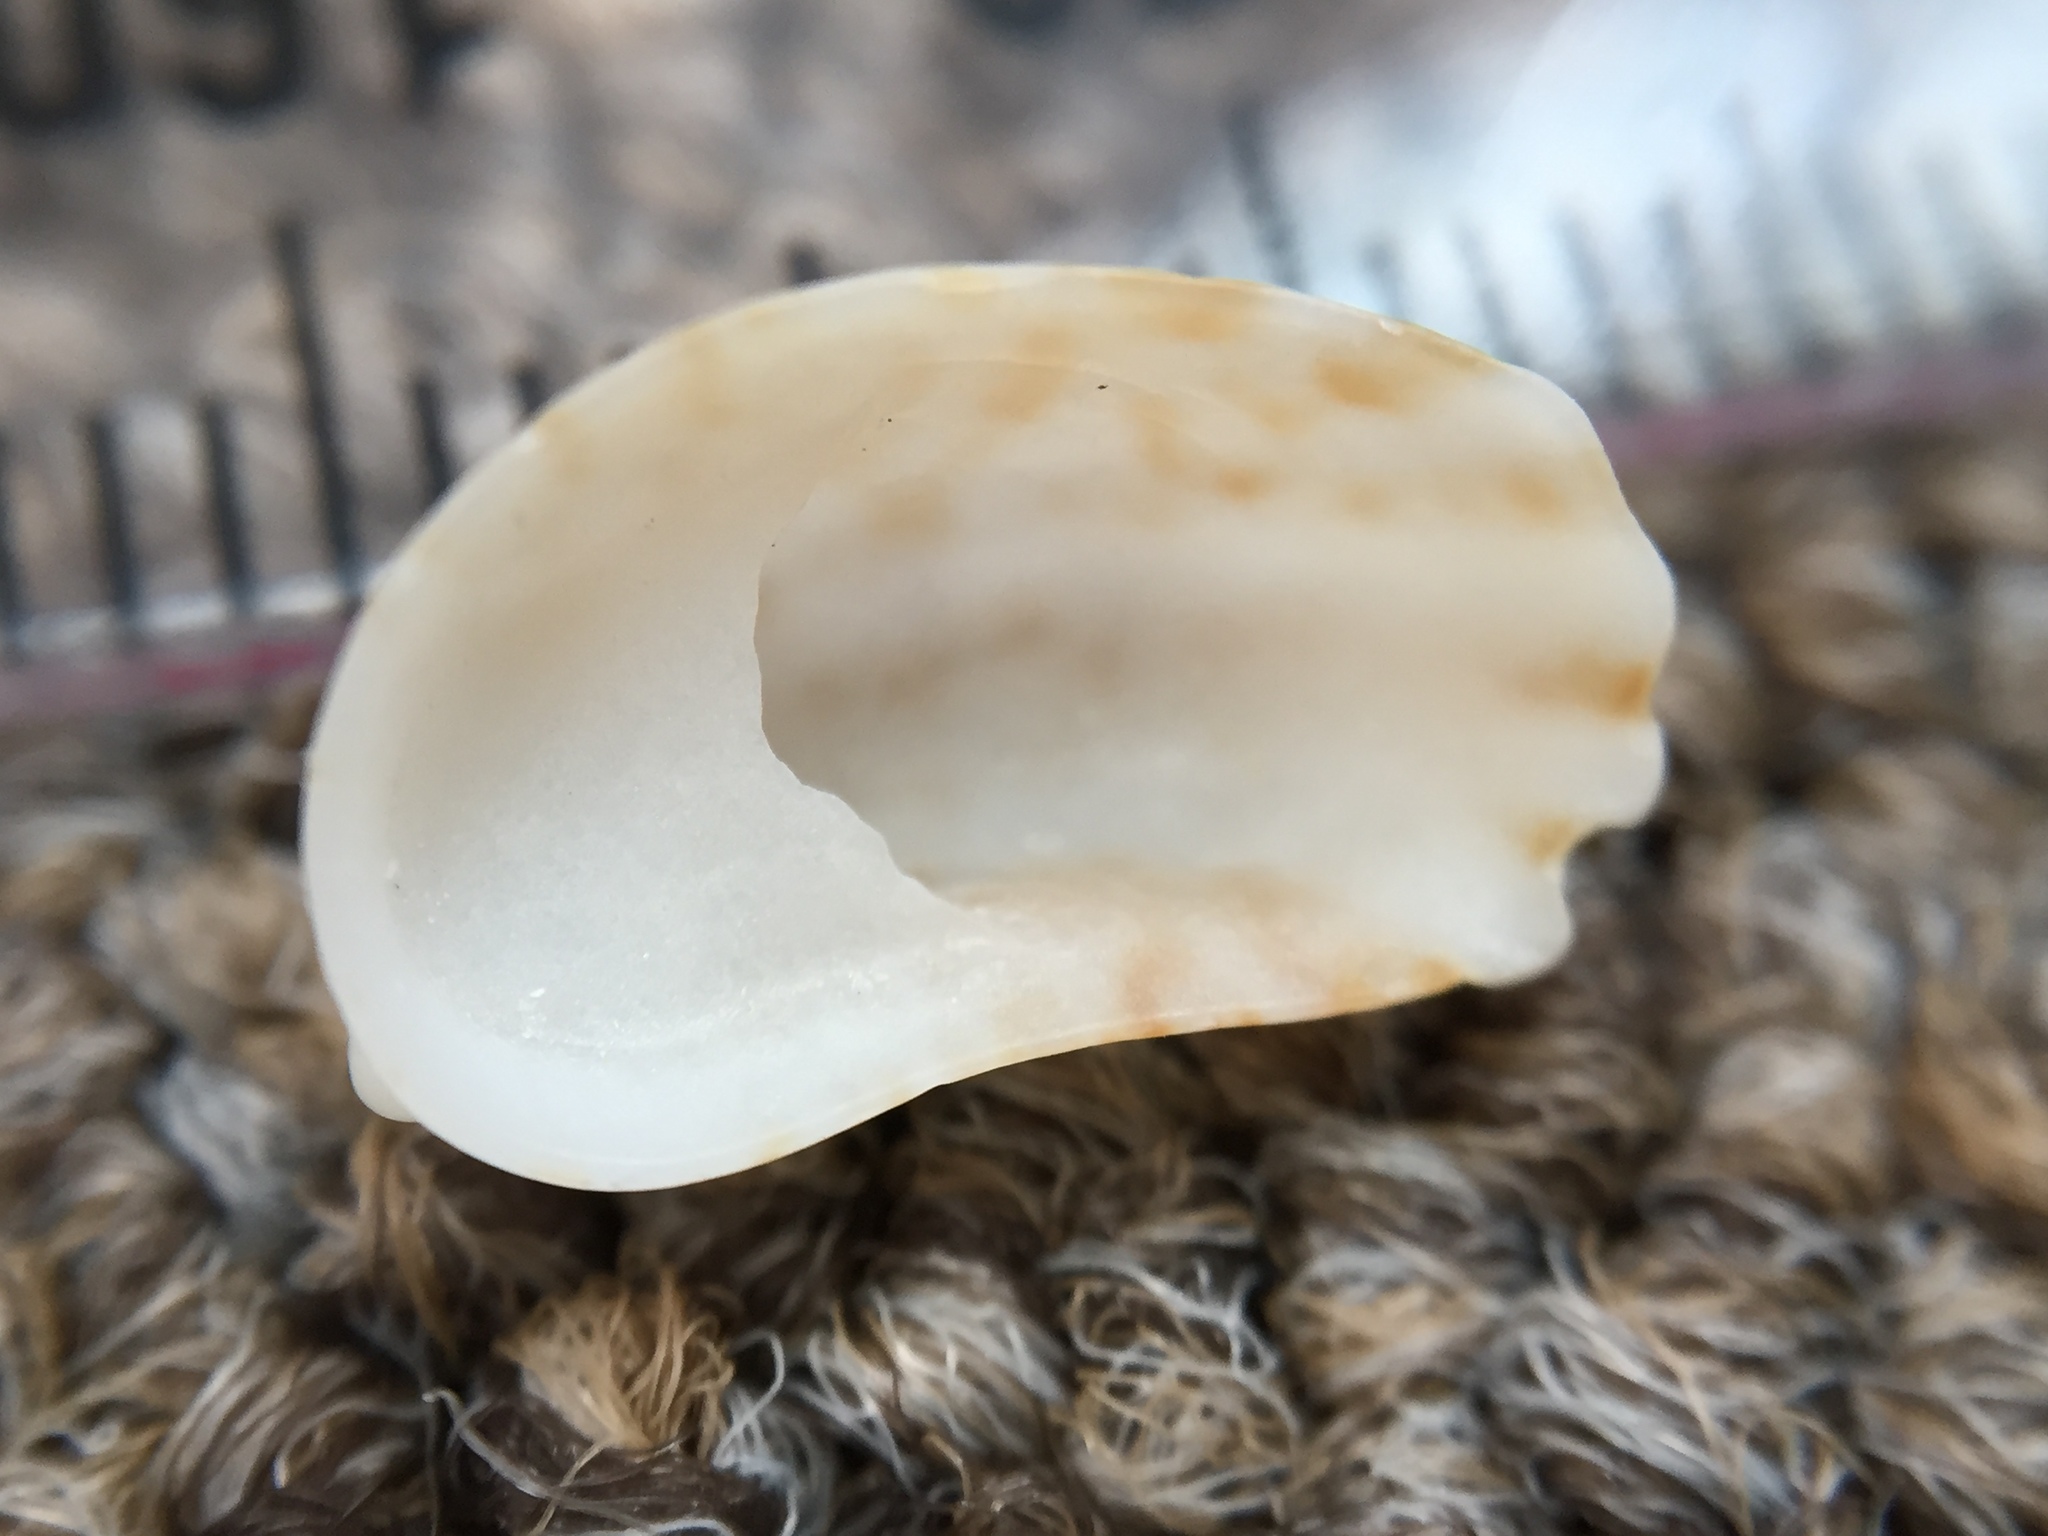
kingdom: Animalia
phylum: Mollusca
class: Gastropoda
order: Littorinimorpha
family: Calyptraeidae
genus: Maoricrypta
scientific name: Maoricrypta costata
